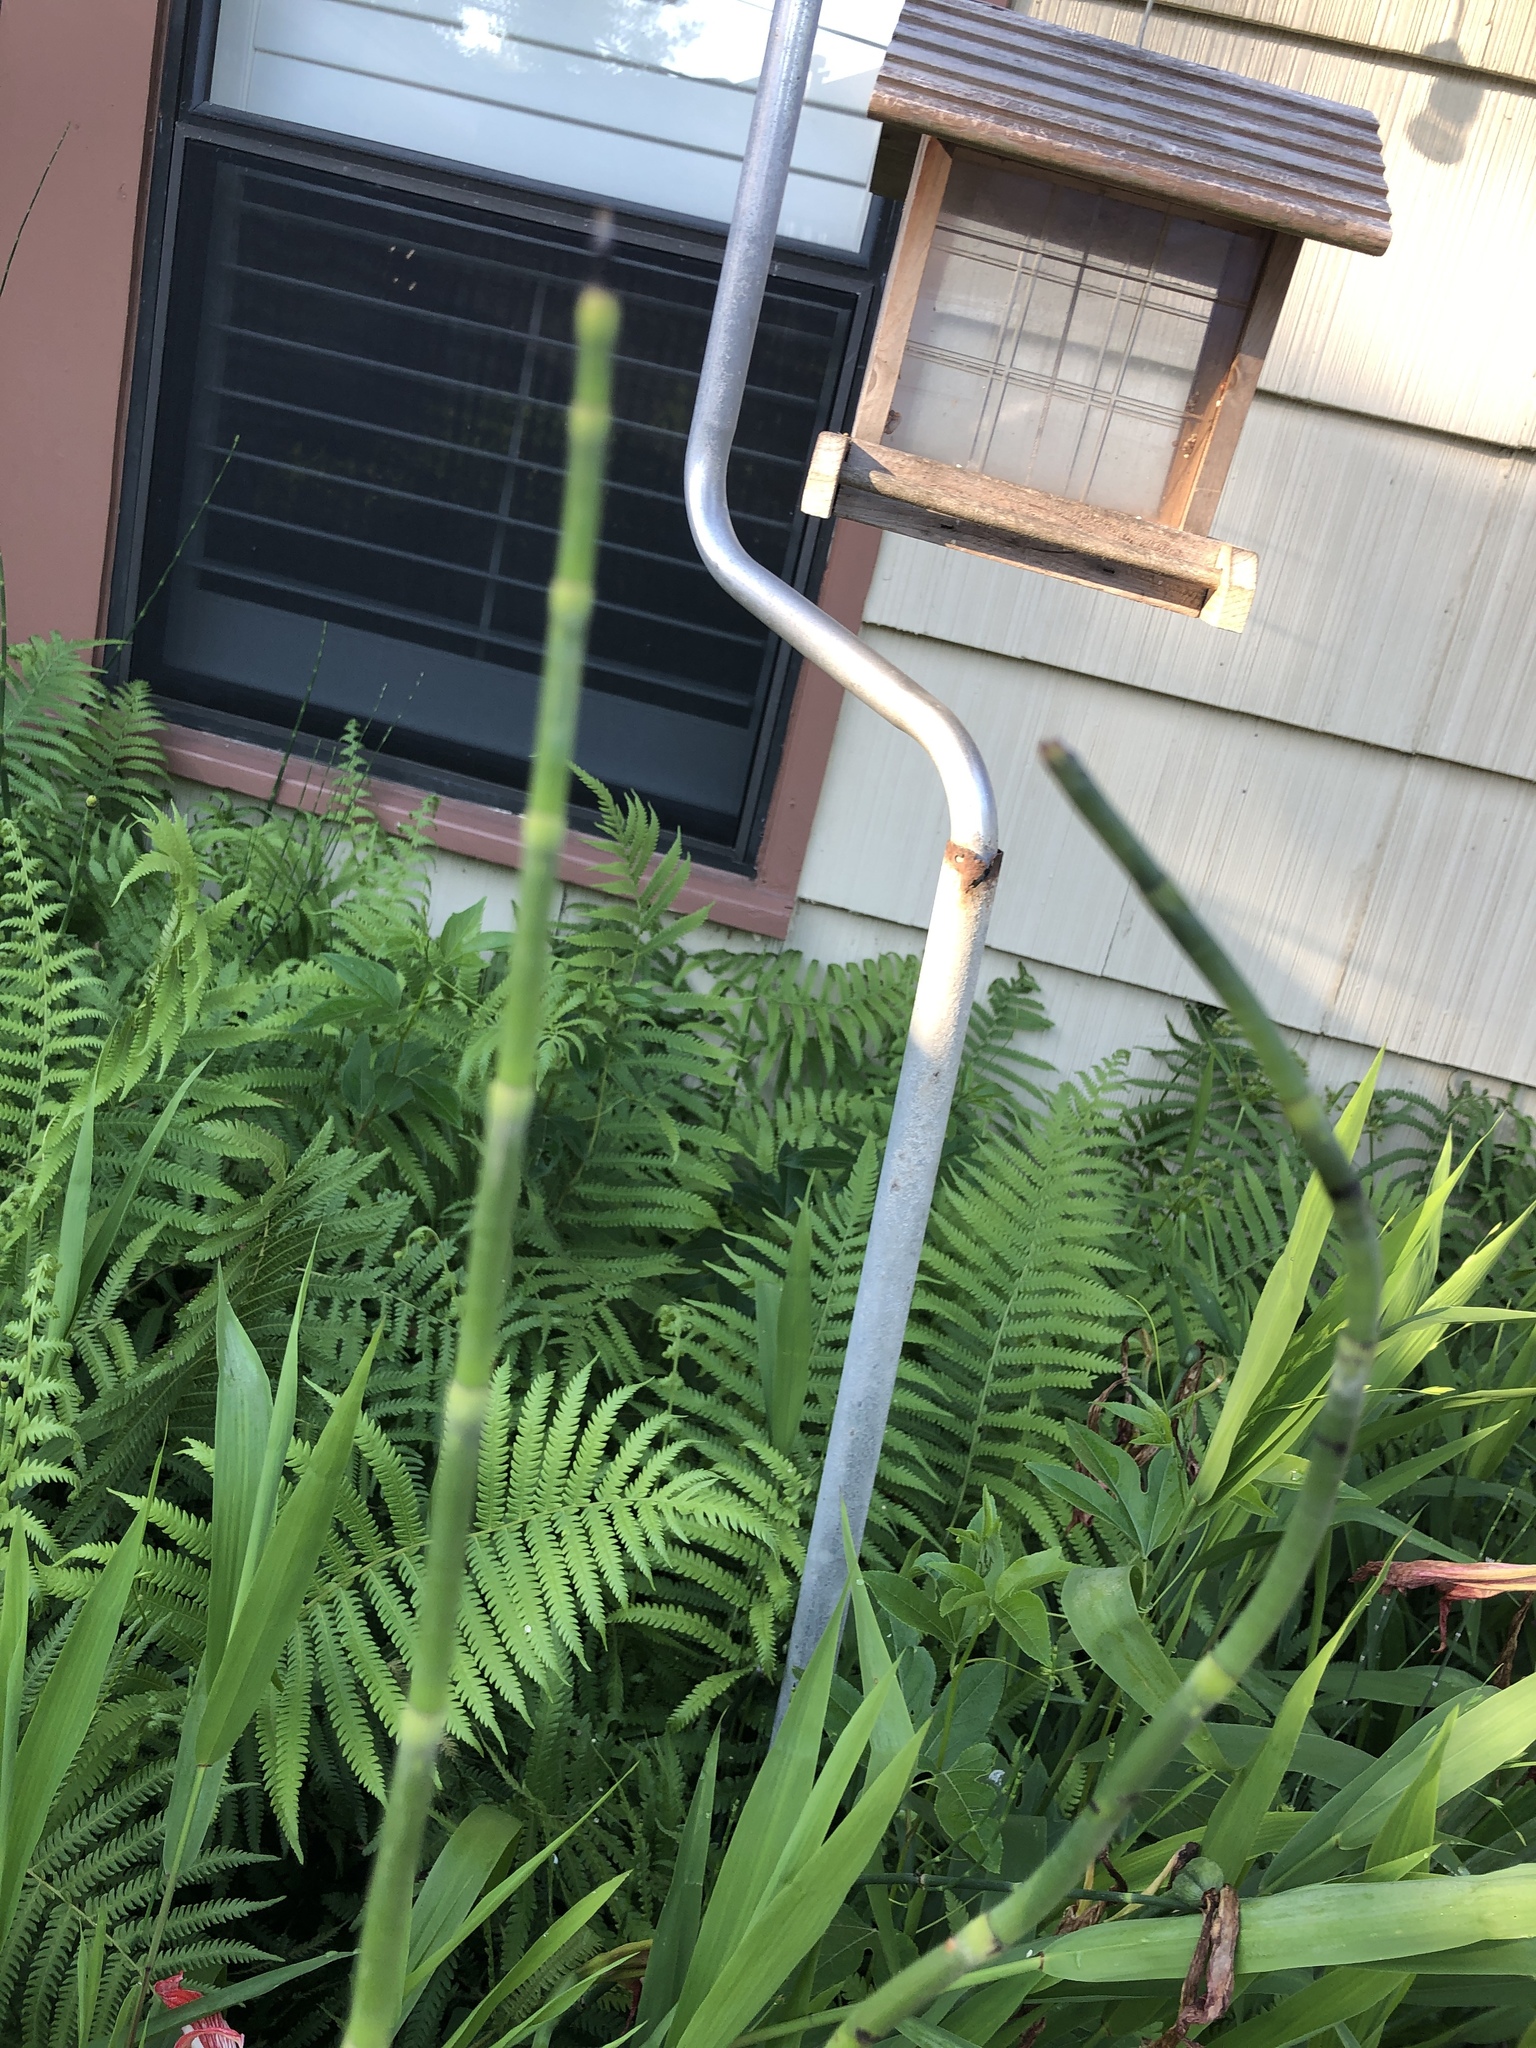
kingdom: Plantae
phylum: Tracheophyta
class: Polypodiopsida
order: Equisetales
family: Equisetaceae
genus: Equisetum
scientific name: Equisetum hyemale
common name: Rough horsetail
